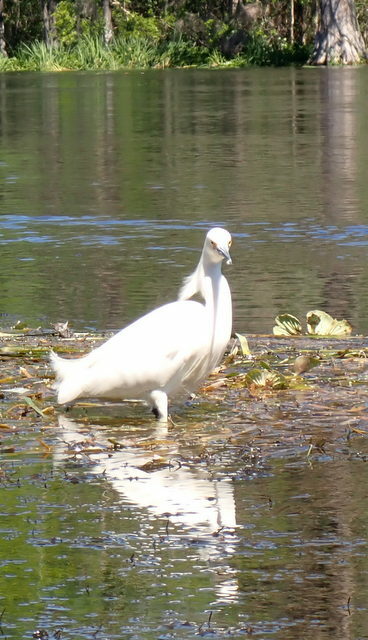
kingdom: Animalia
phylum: Chordata
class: Aves
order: Pelecaniformes
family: Ardeidae
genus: Egretta
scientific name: Egretta thula
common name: Snowy egret
